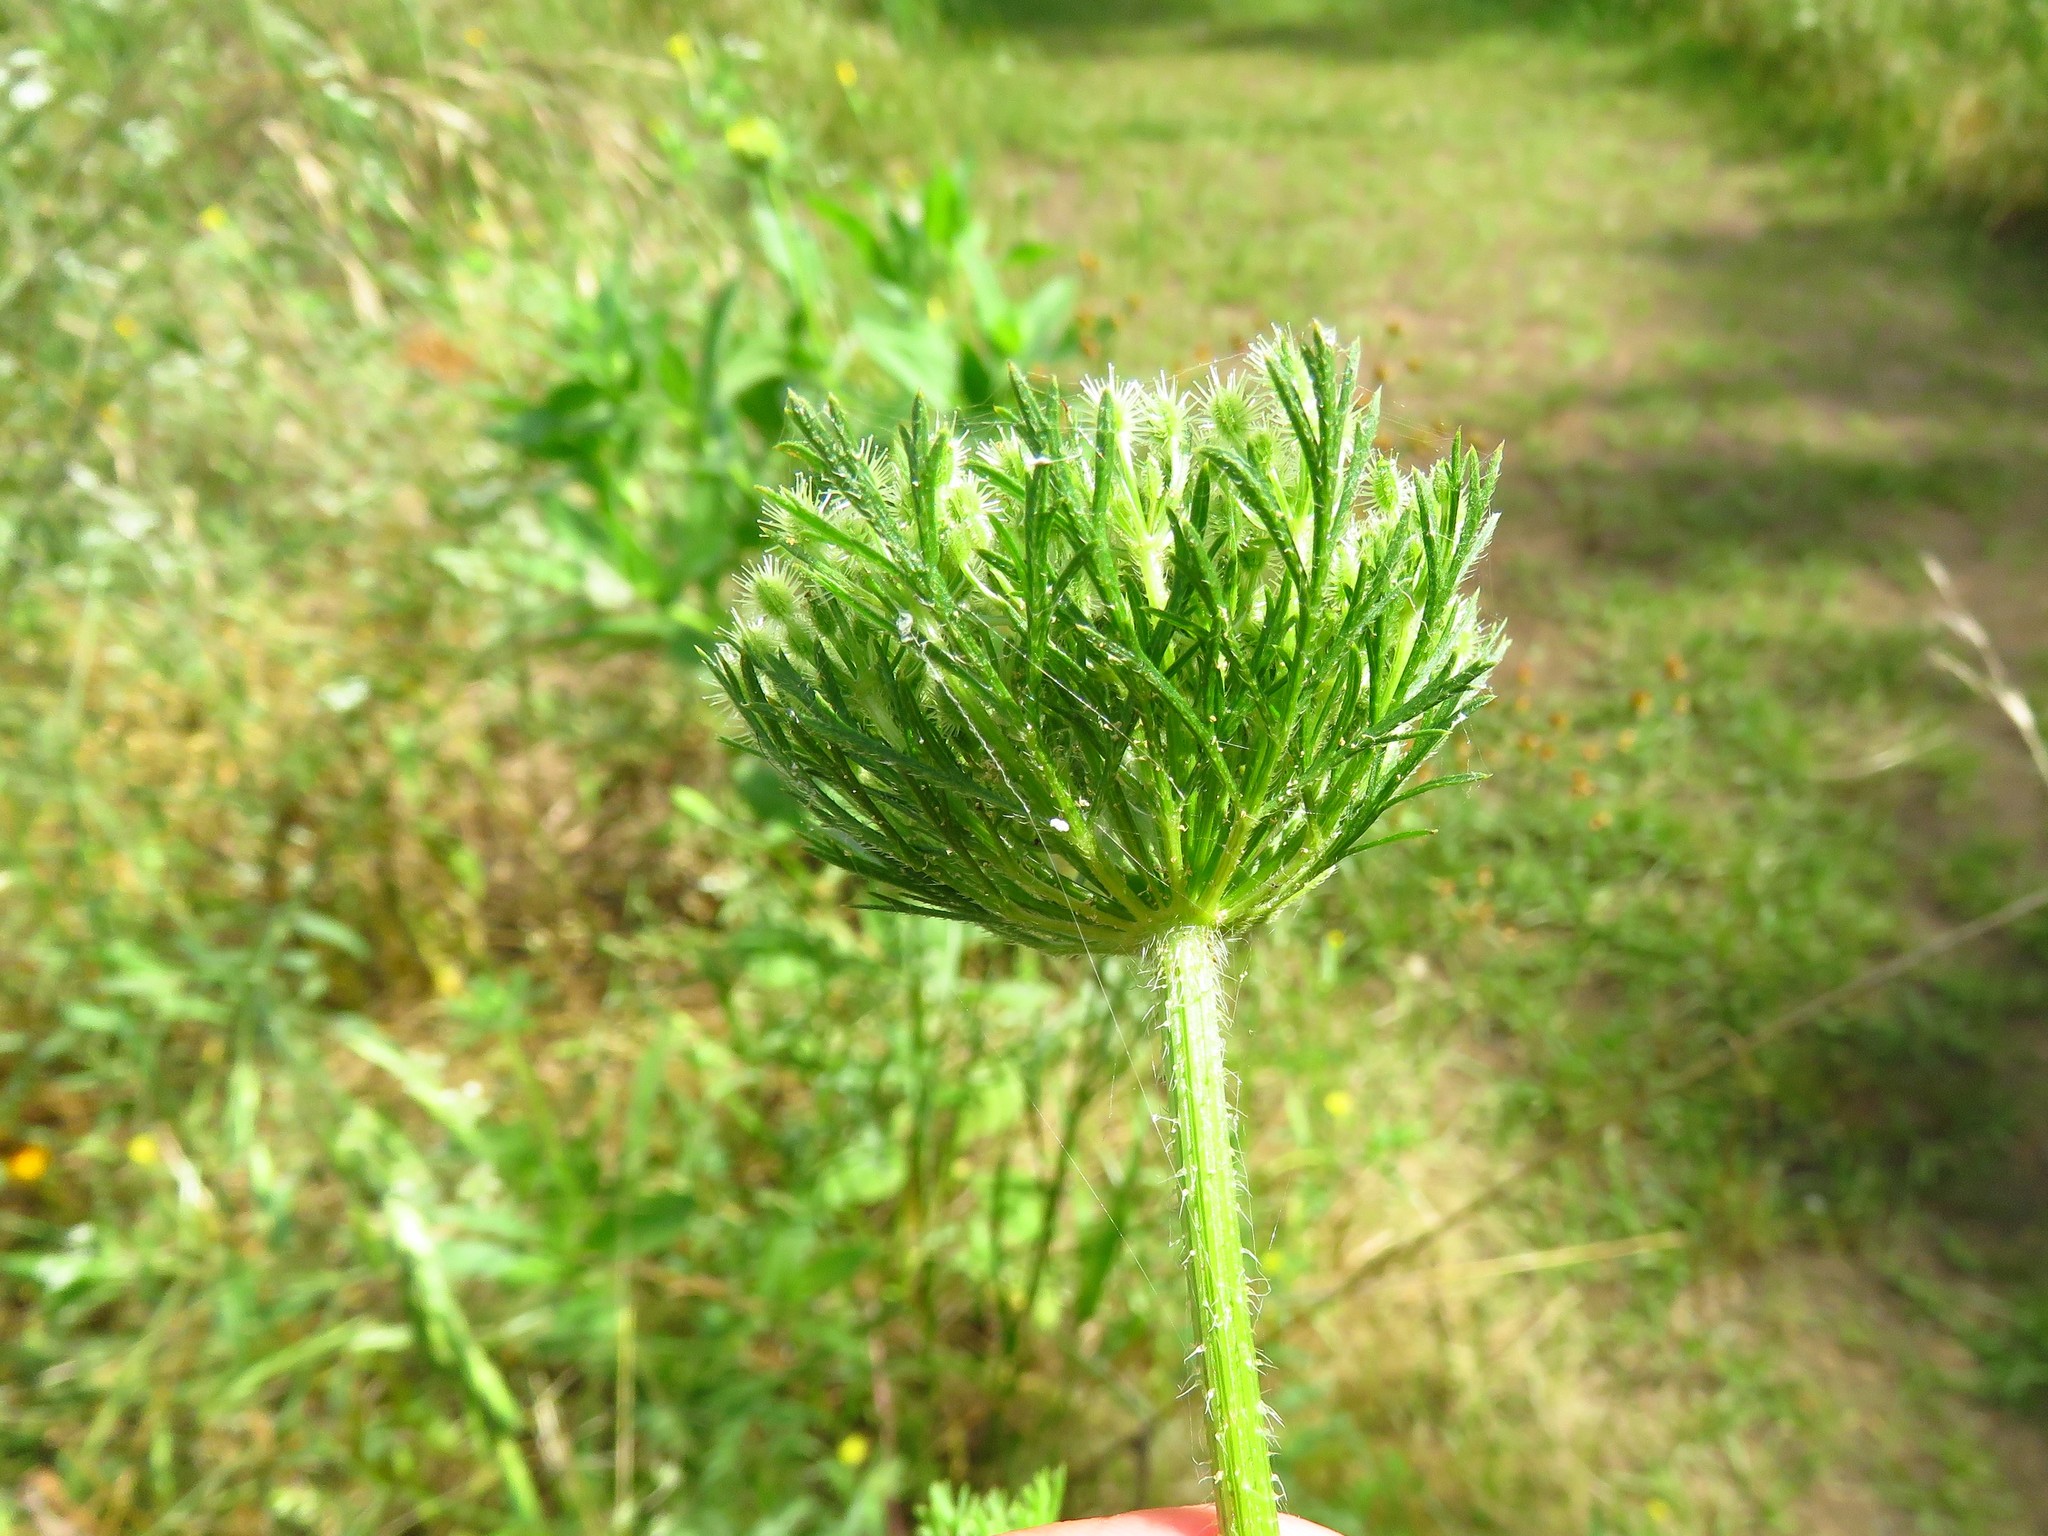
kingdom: Plantae
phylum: Tracheophyta
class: Magnoliopsida
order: Apiales
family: Apiaceae
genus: Daucus
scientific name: Daucus pusillus
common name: Southwest wild carrot
